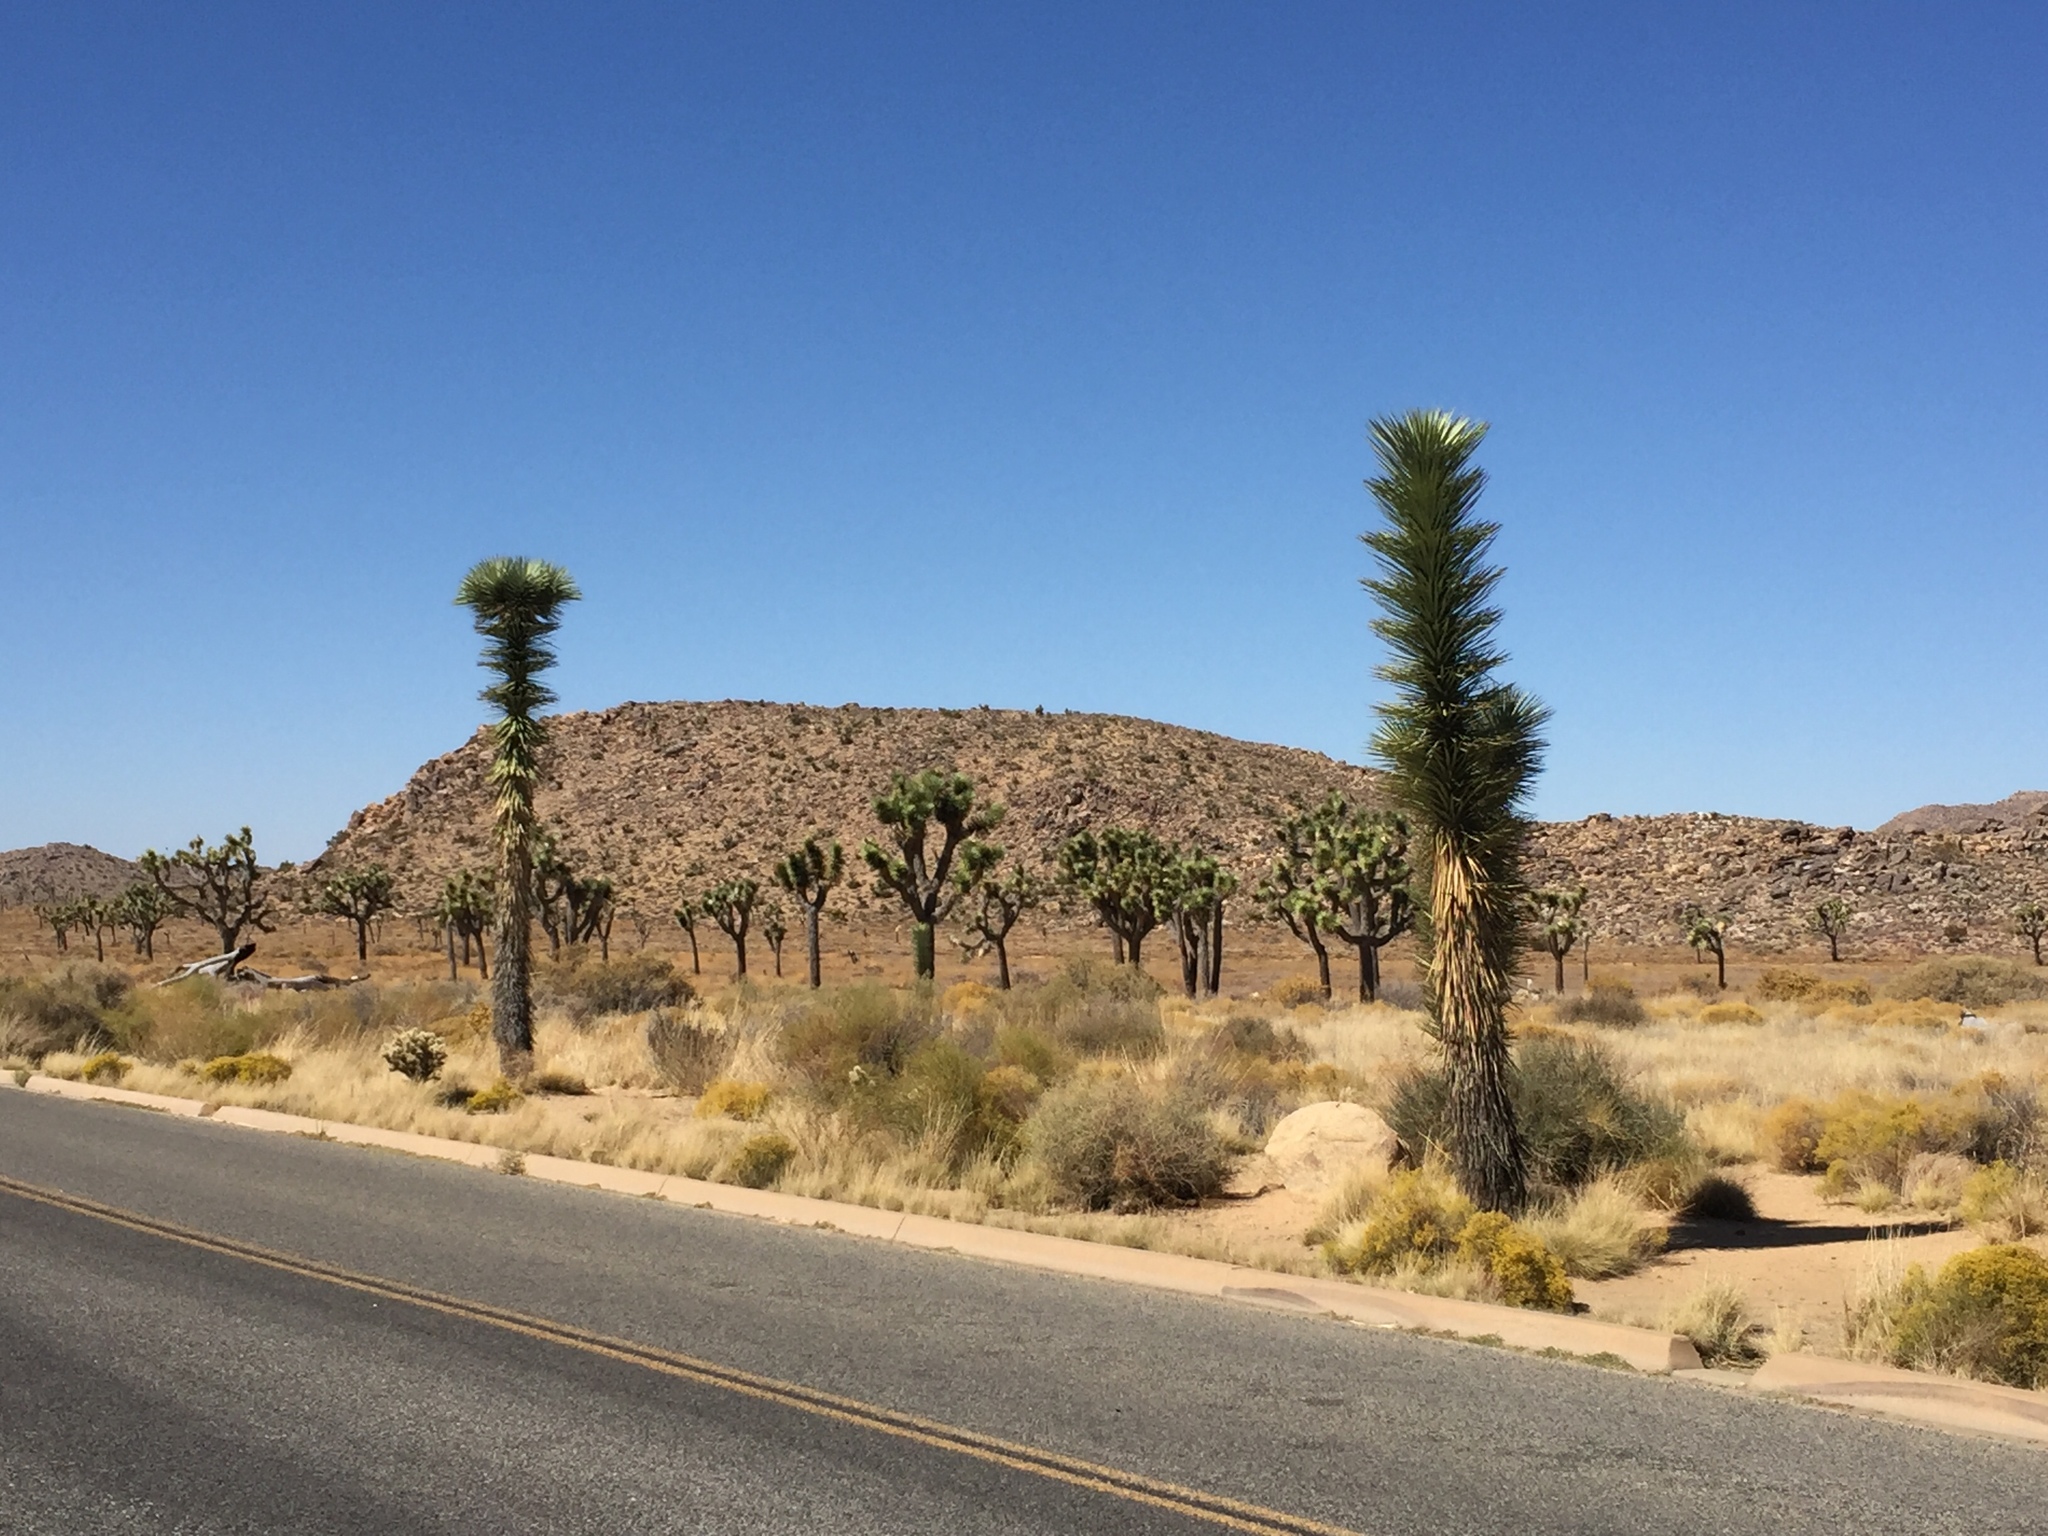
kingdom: Plantae
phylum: Tracheophyta
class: Liliopsida
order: Asparagales
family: Asparagaceae
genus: Yucca
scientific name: Yucca brevifolia
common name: Joshua tree
